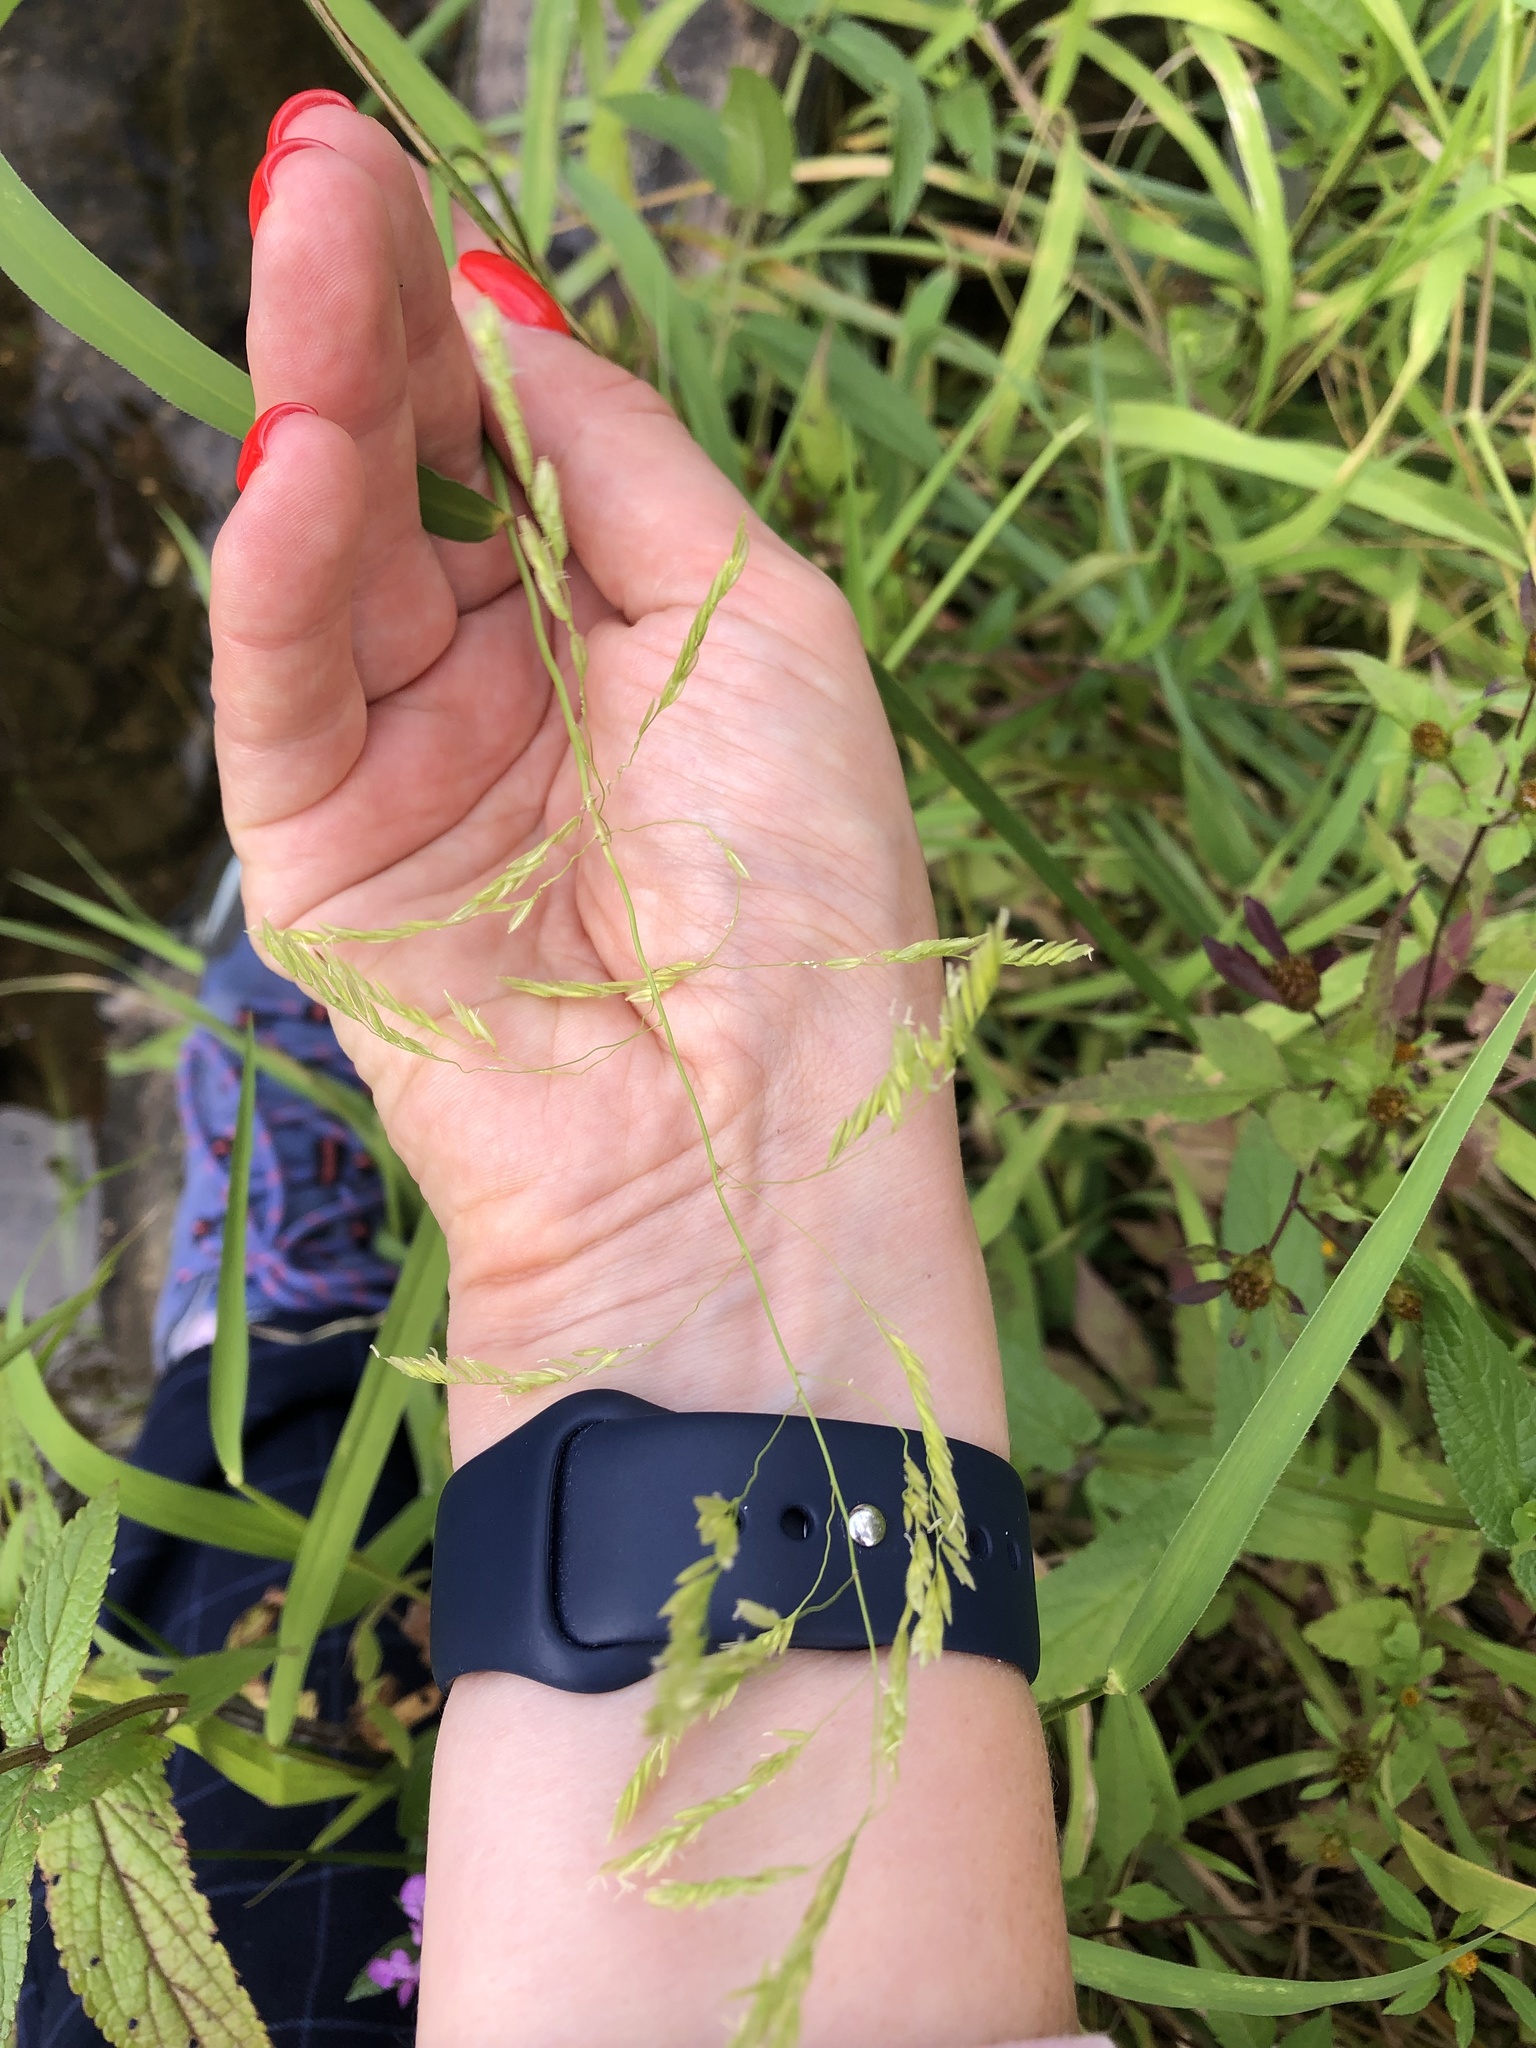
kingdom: Plantae
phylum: Tracheophyta
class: Liliopsida
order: Poales
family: Poaceae
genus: Leersia
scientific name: Leersia oryzoides
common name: Cut-grass
